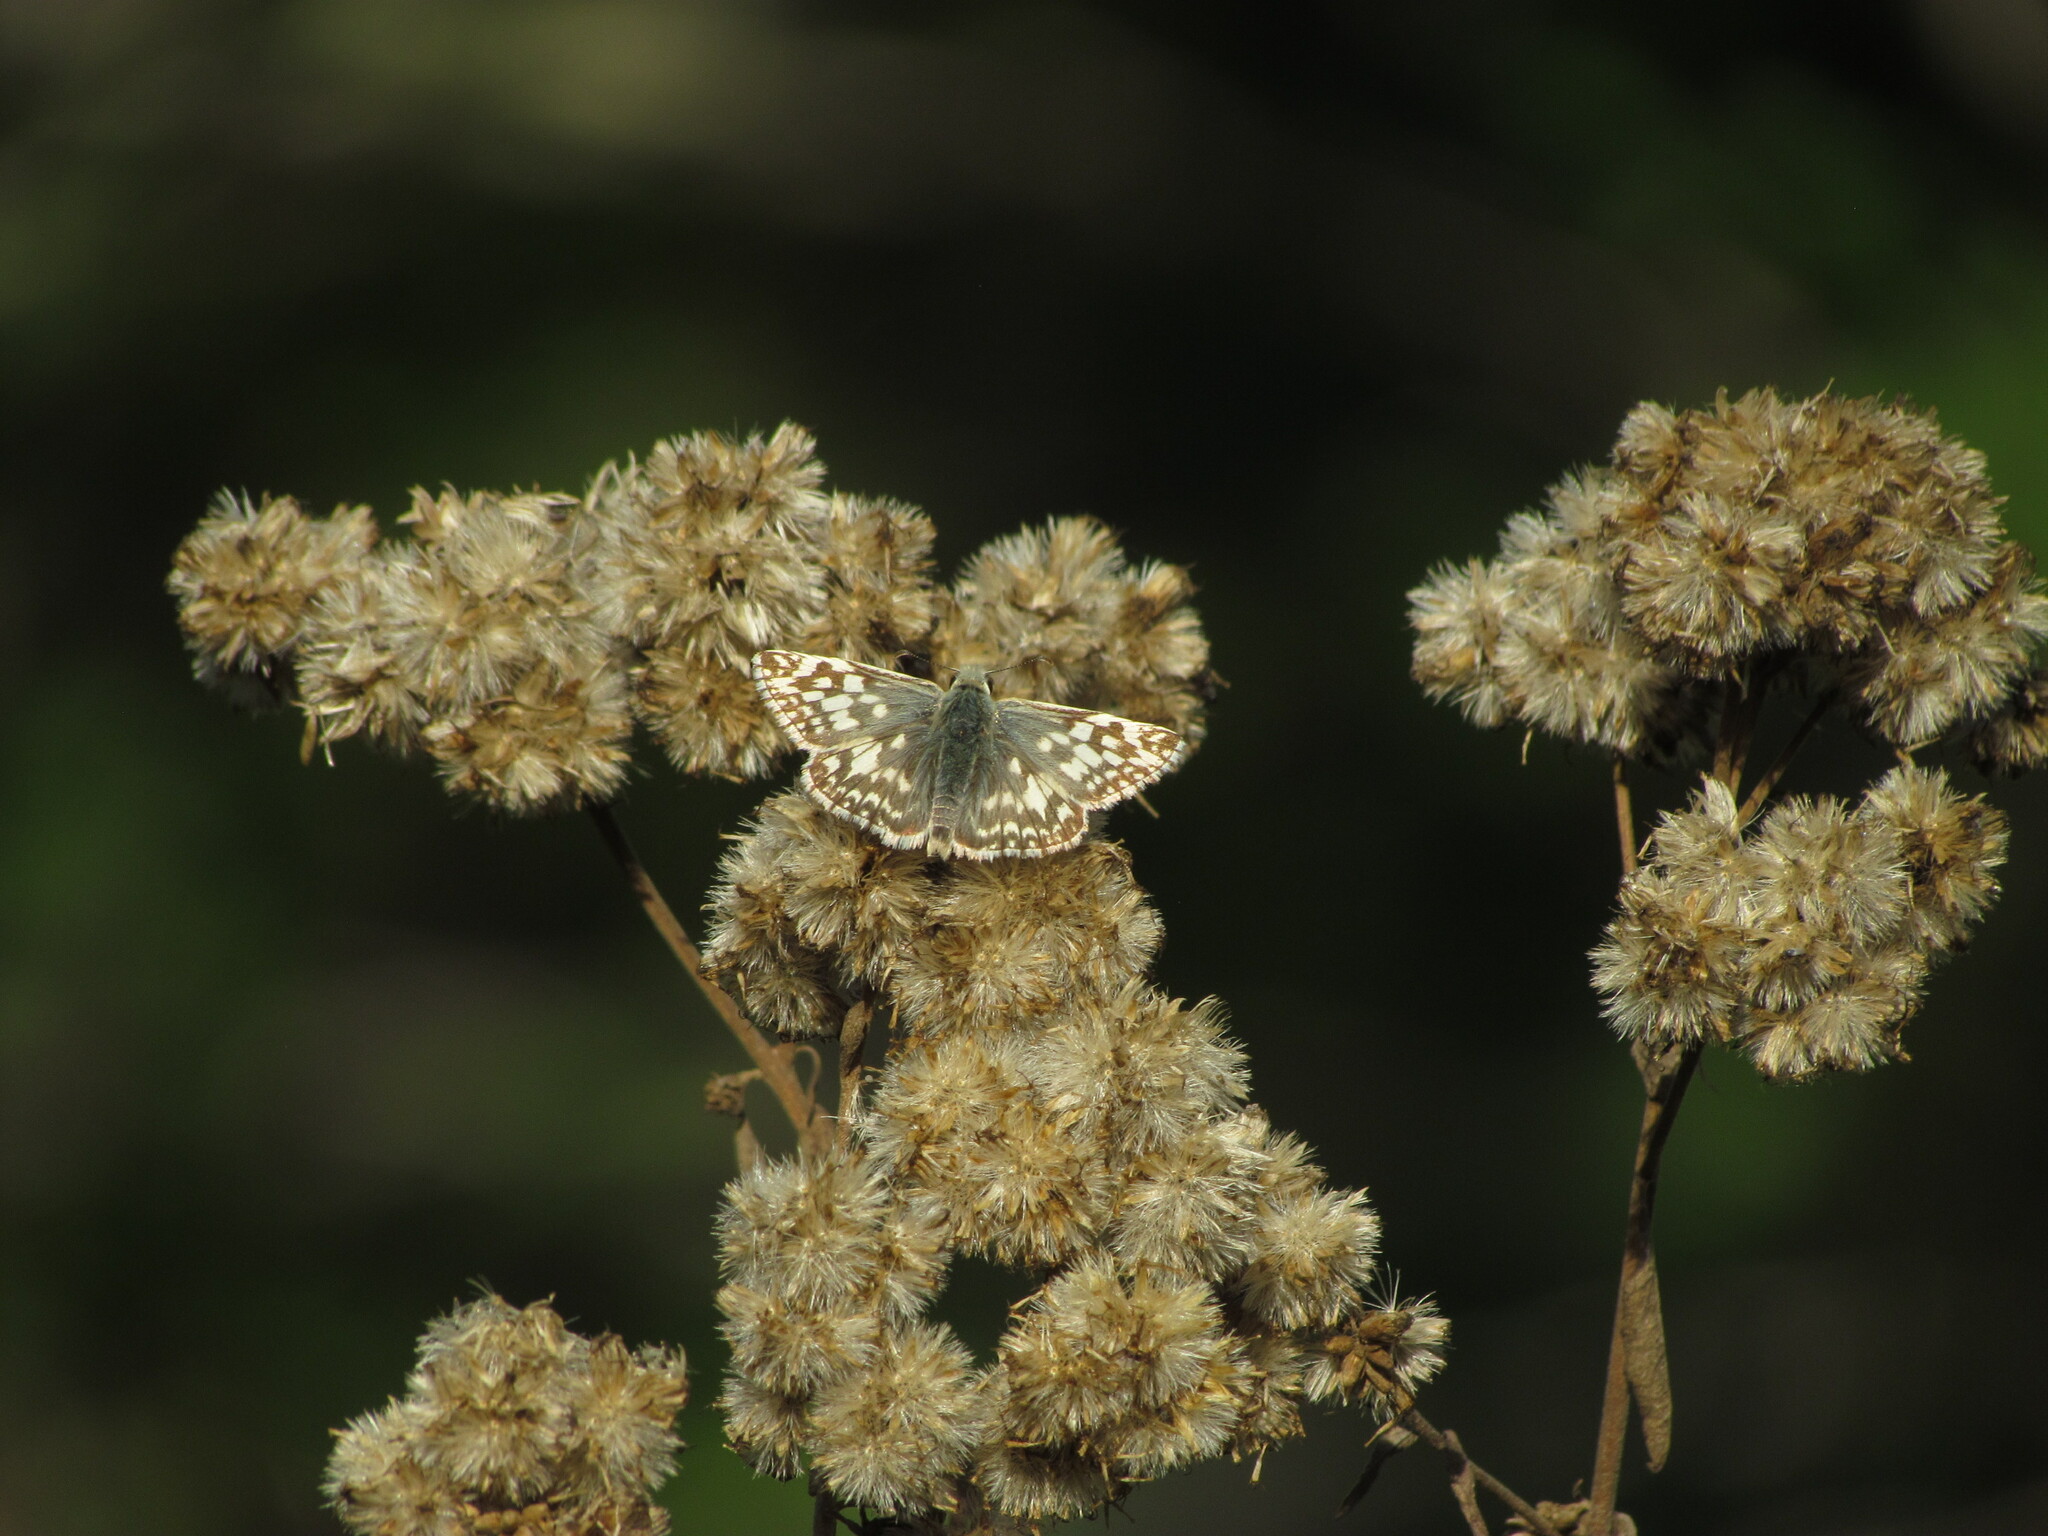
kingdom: Animalia
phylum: Arthropoda
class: Insecta
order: Lepidoptera
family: Hesperiidae
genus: Heliopetes
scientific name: Heliopetes americanus
